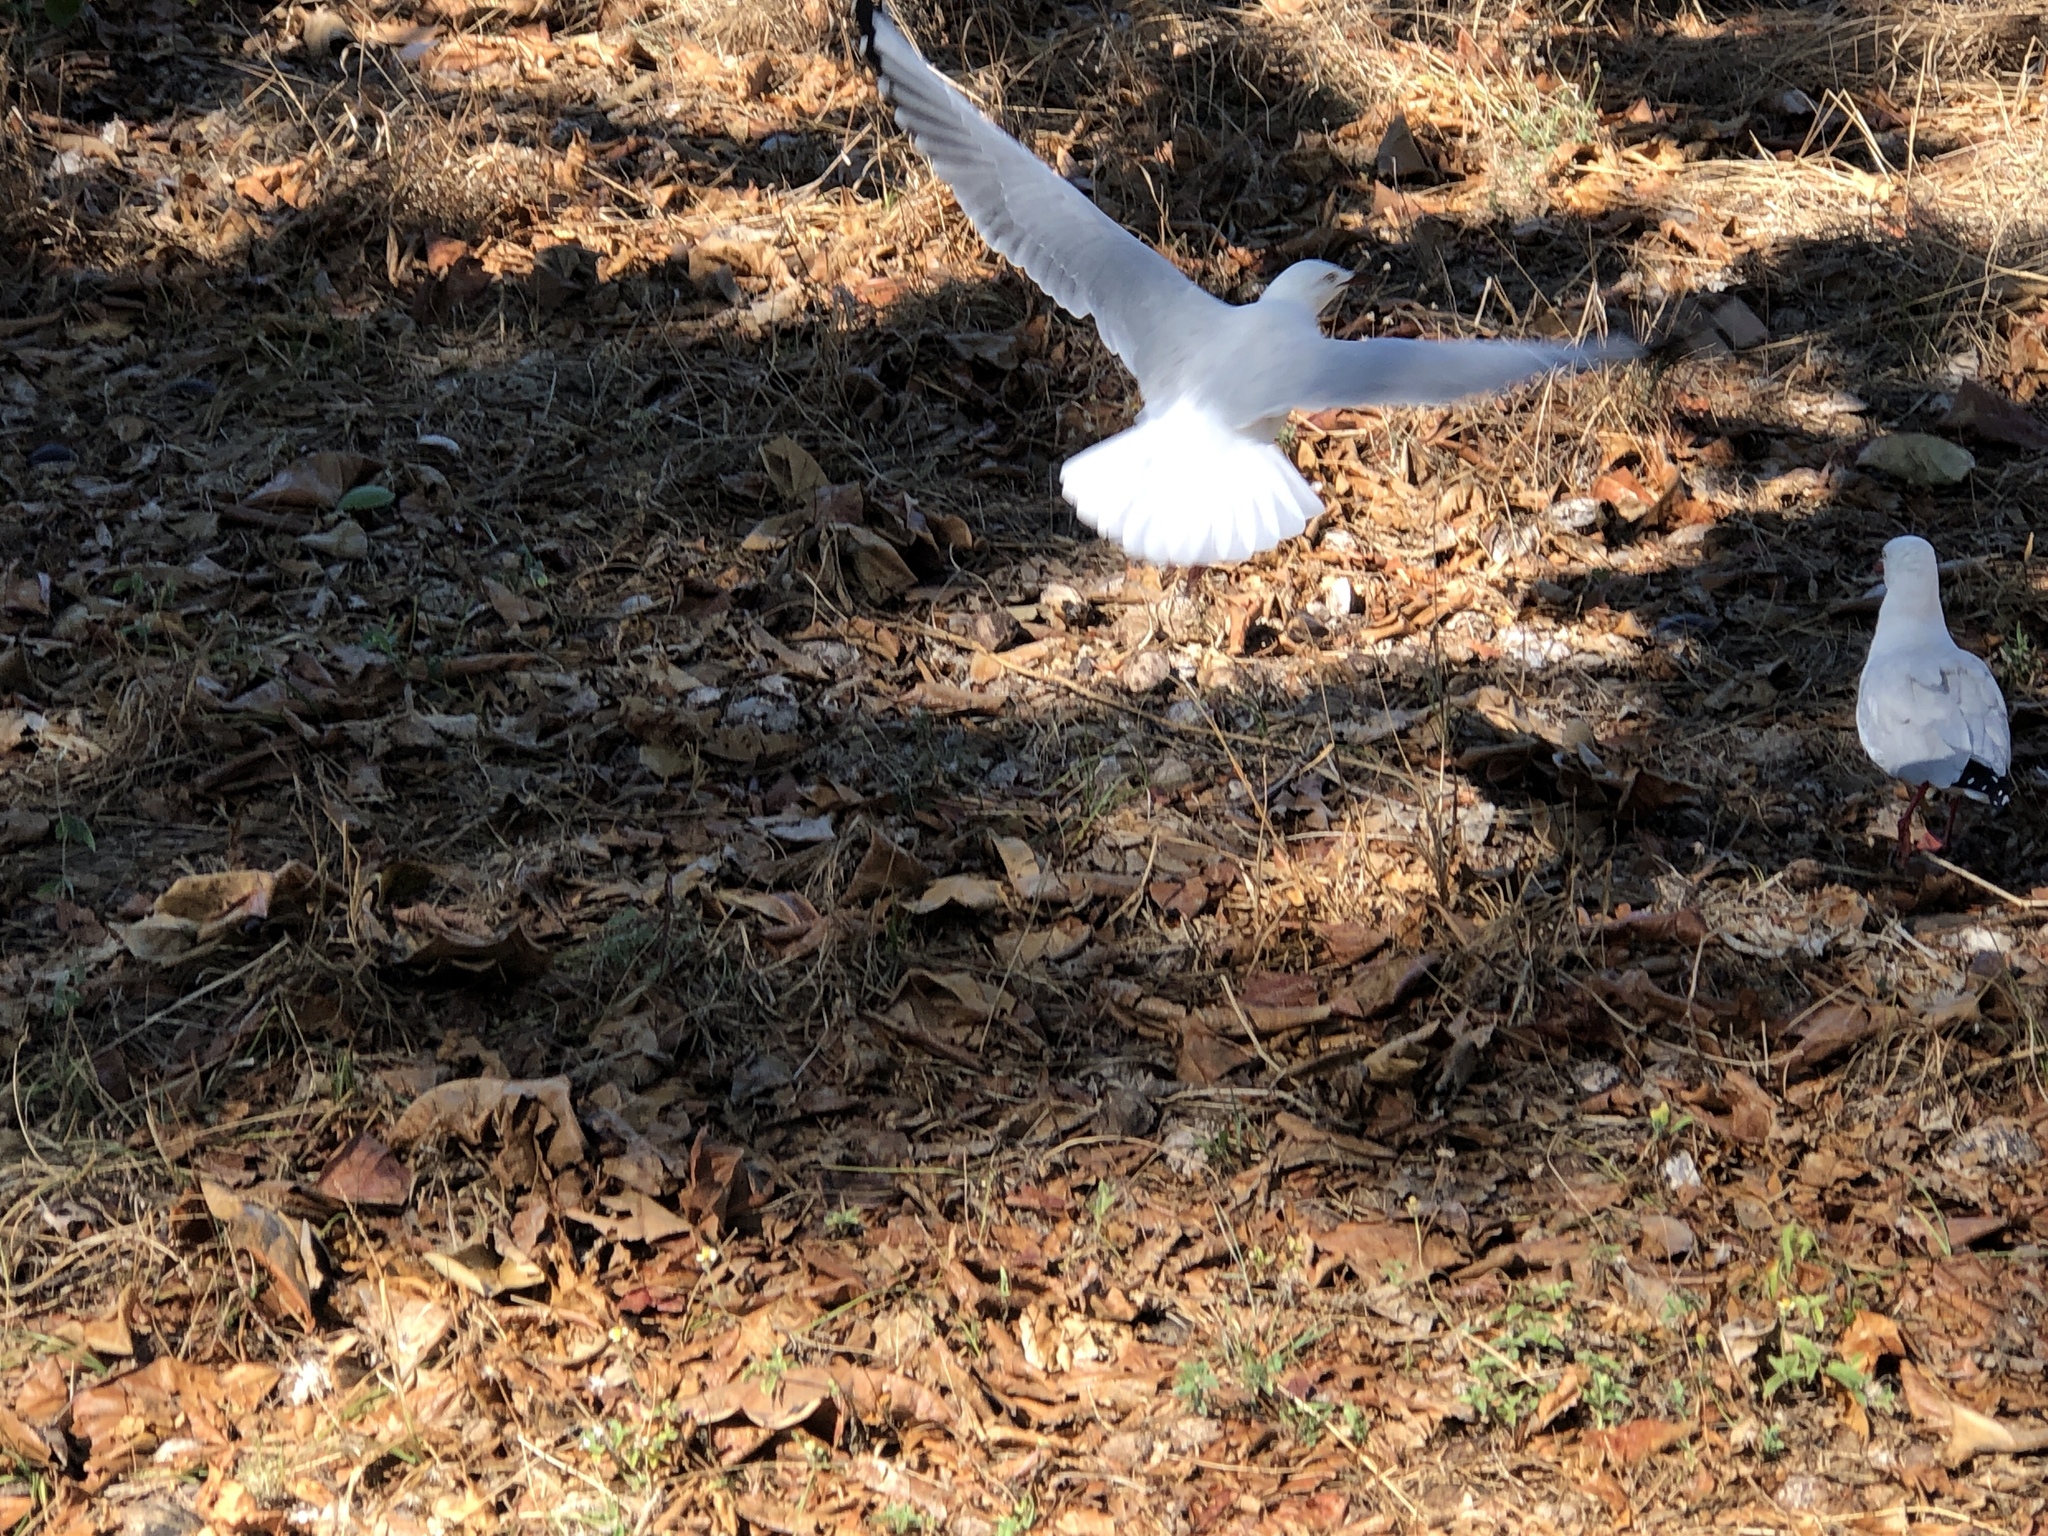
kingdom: Animalia
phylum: Chordata
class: Aves
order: Charadriiformes
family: Laridae
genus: Chroicocephalus
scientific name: Chroicocephalus novaehollandiae
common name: Silver gull
